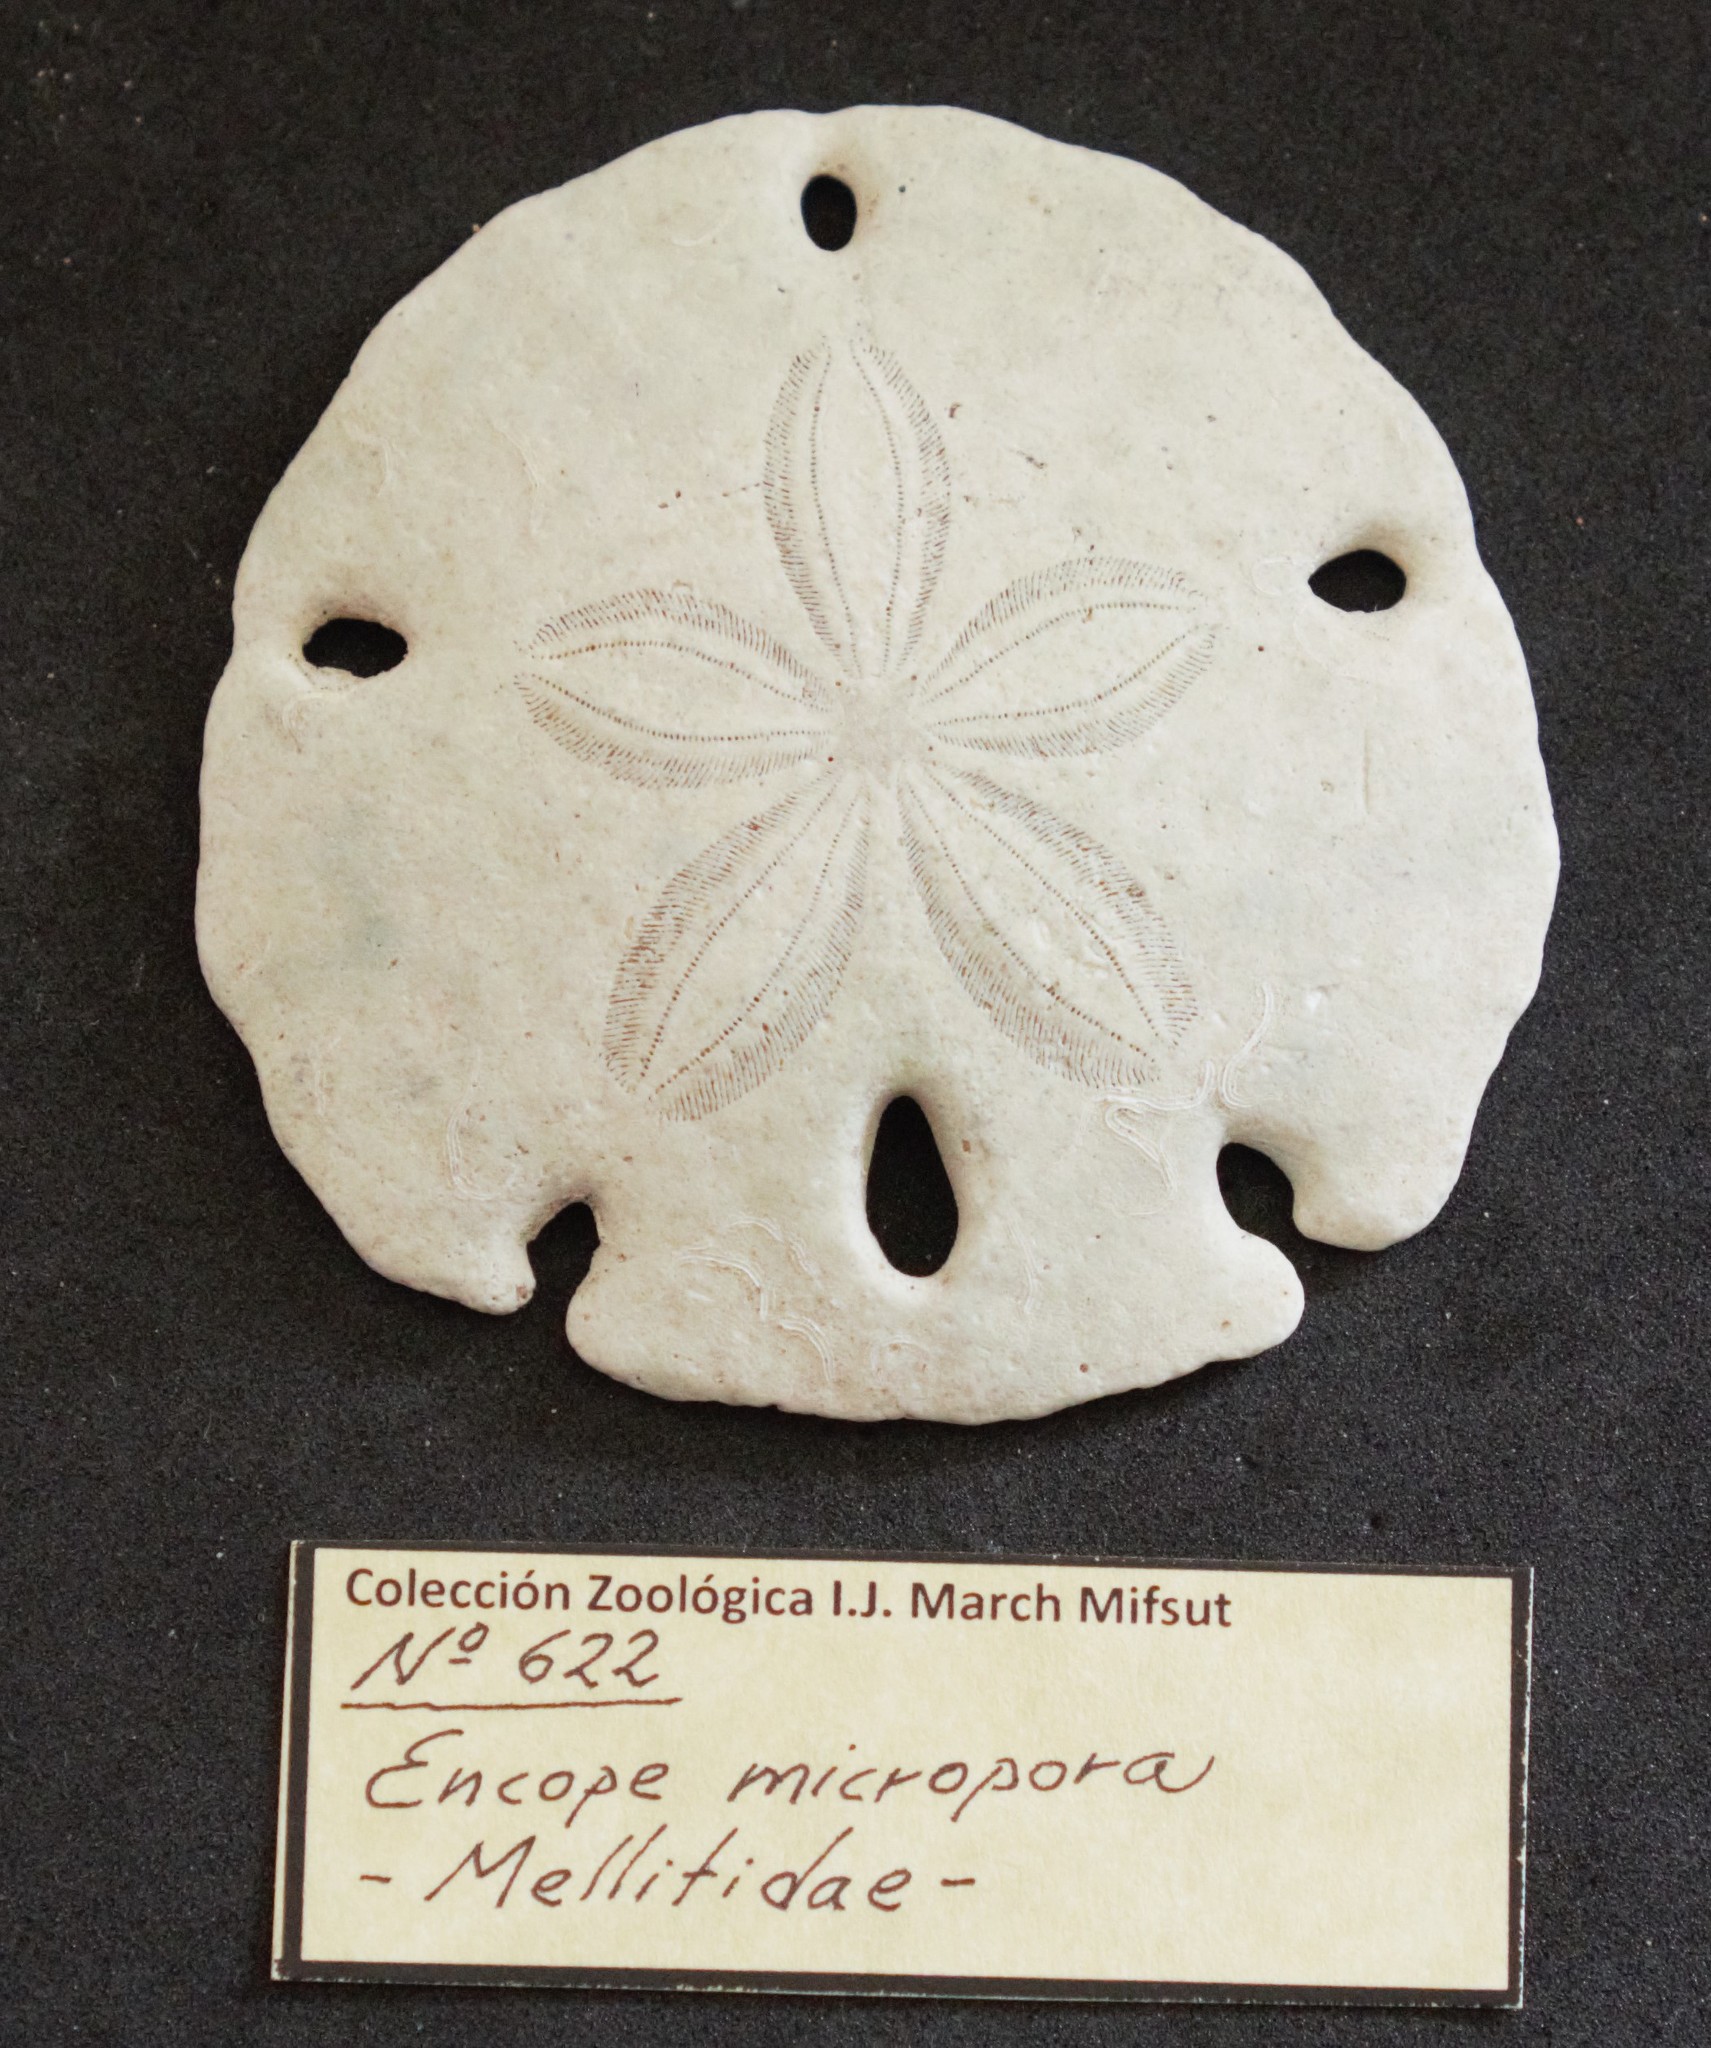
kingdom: Animalia
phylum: Echinodermata
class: Echinoidea
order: Echinolampadacea
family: Mellitidae
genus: Encope
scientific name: Encope micropora
